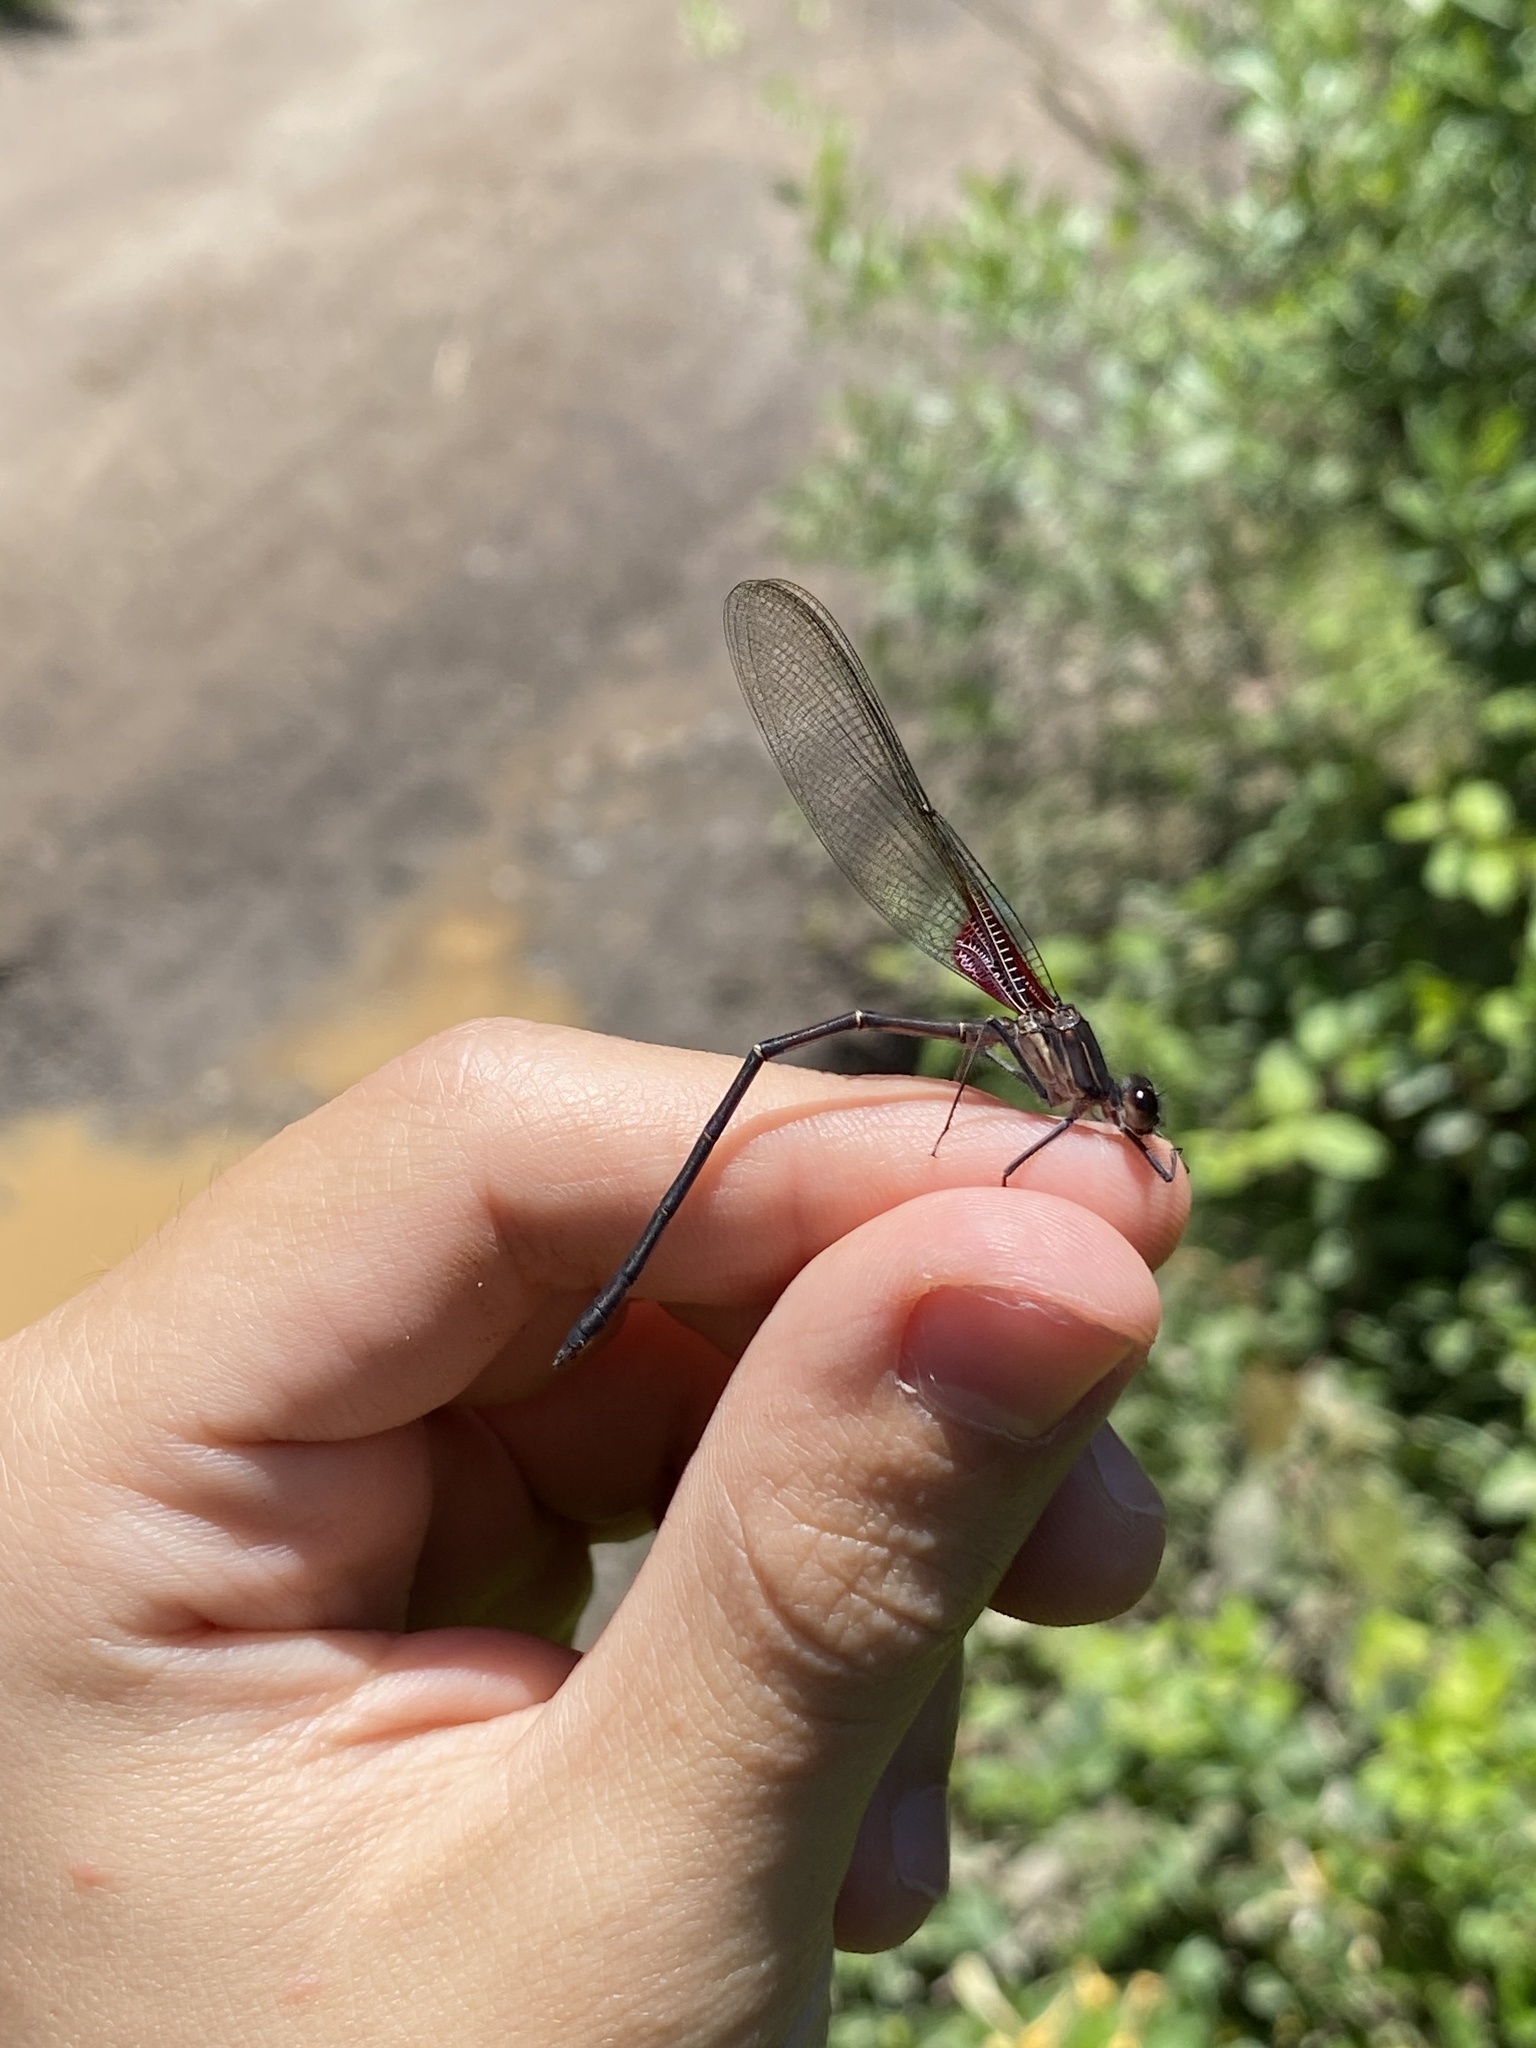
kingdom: Animalia
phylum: Arthropoda
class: Insecta
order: Odonata
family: Calopterygidae
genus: Hetaerina
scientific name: Hetaerina vulnerata
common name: Canyon rubyspot
